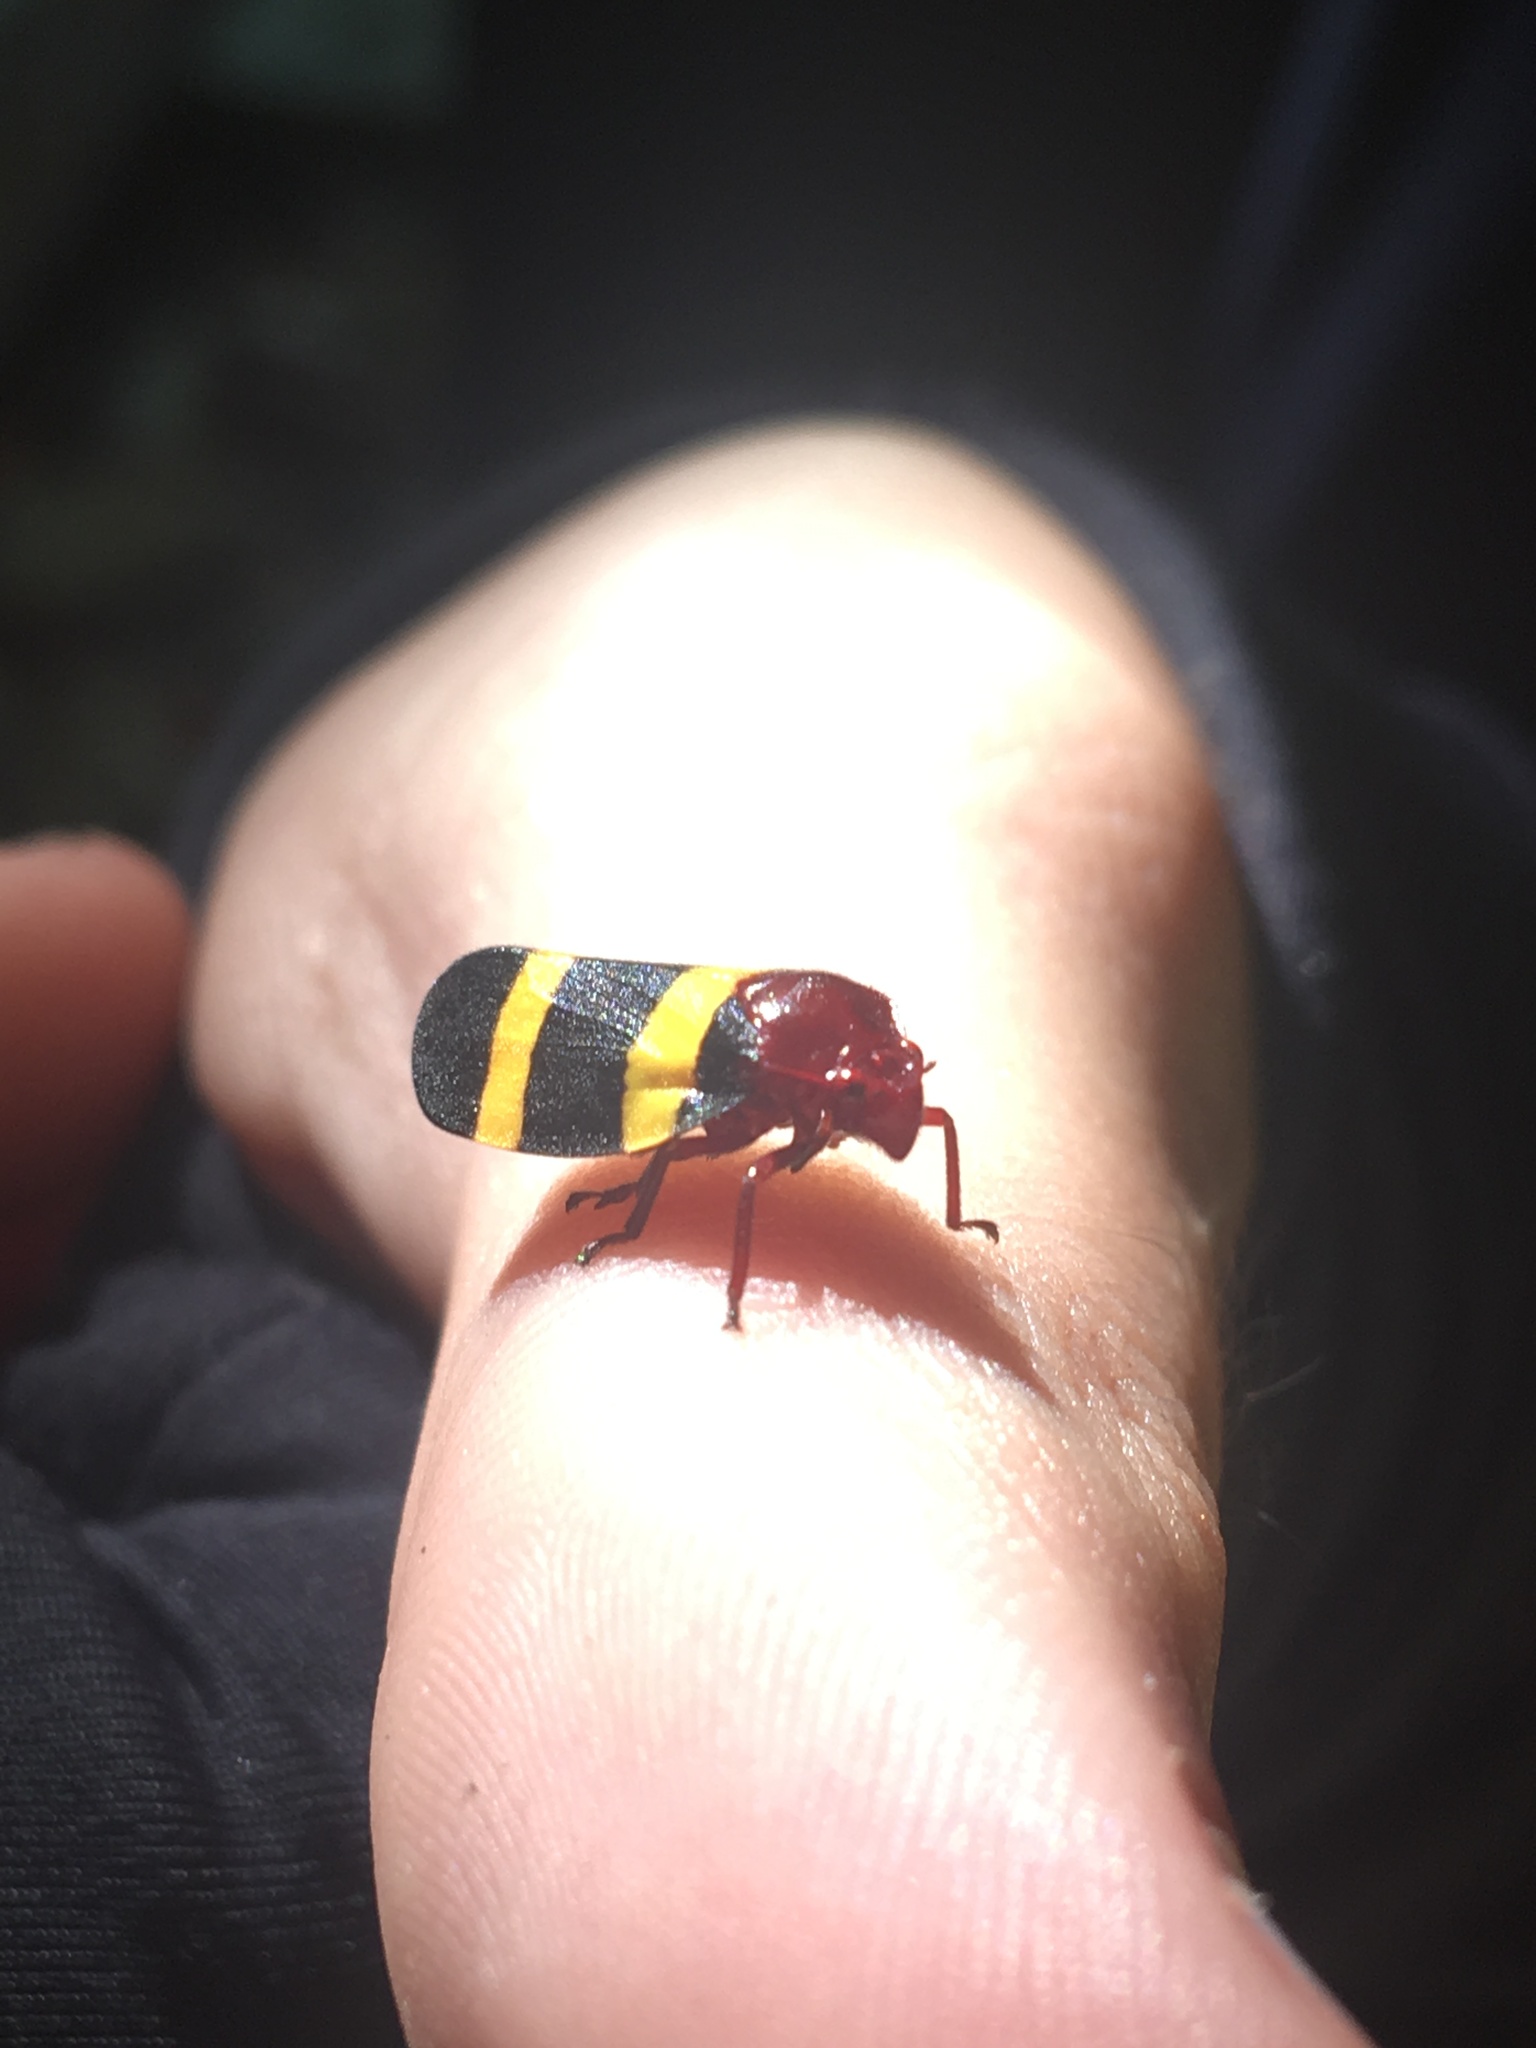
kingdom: Animalia
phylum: Arthropoda
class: Insecta
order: Hemiptera
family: Cercopidae
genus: Sphenorhina
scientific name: Sphenorhina rubra
